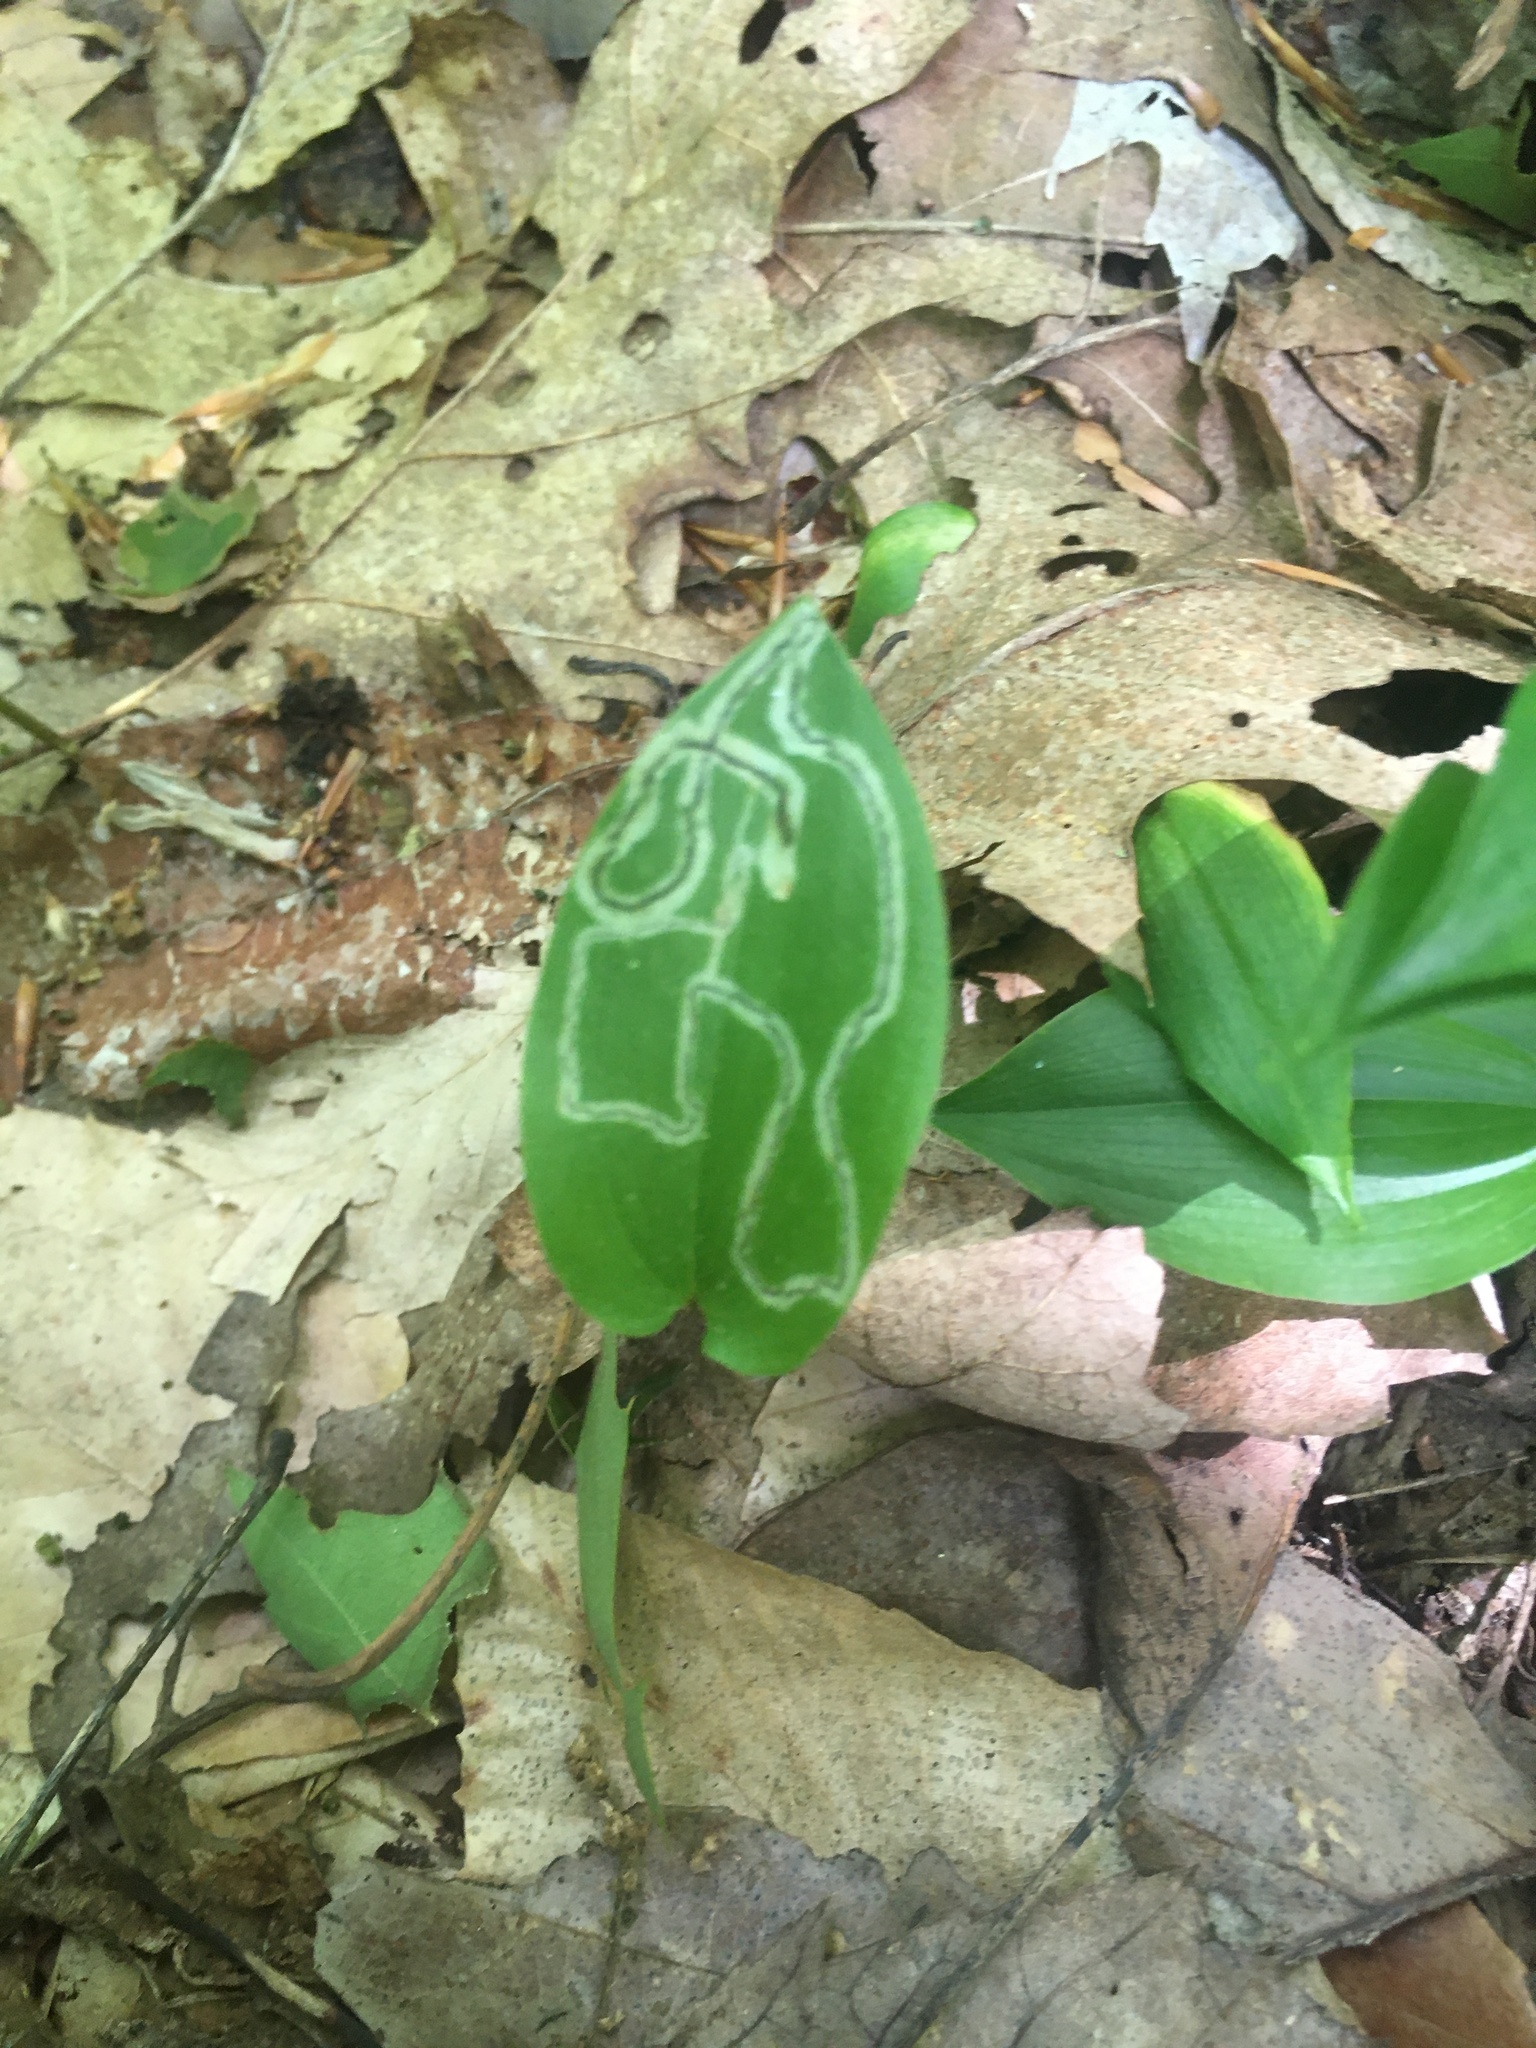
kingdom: Animalia
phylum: Arthropoda
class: Insecta
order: Diptera
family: Agromyzidae
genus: Liriomyza
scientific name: Liriomyza smilacinae
